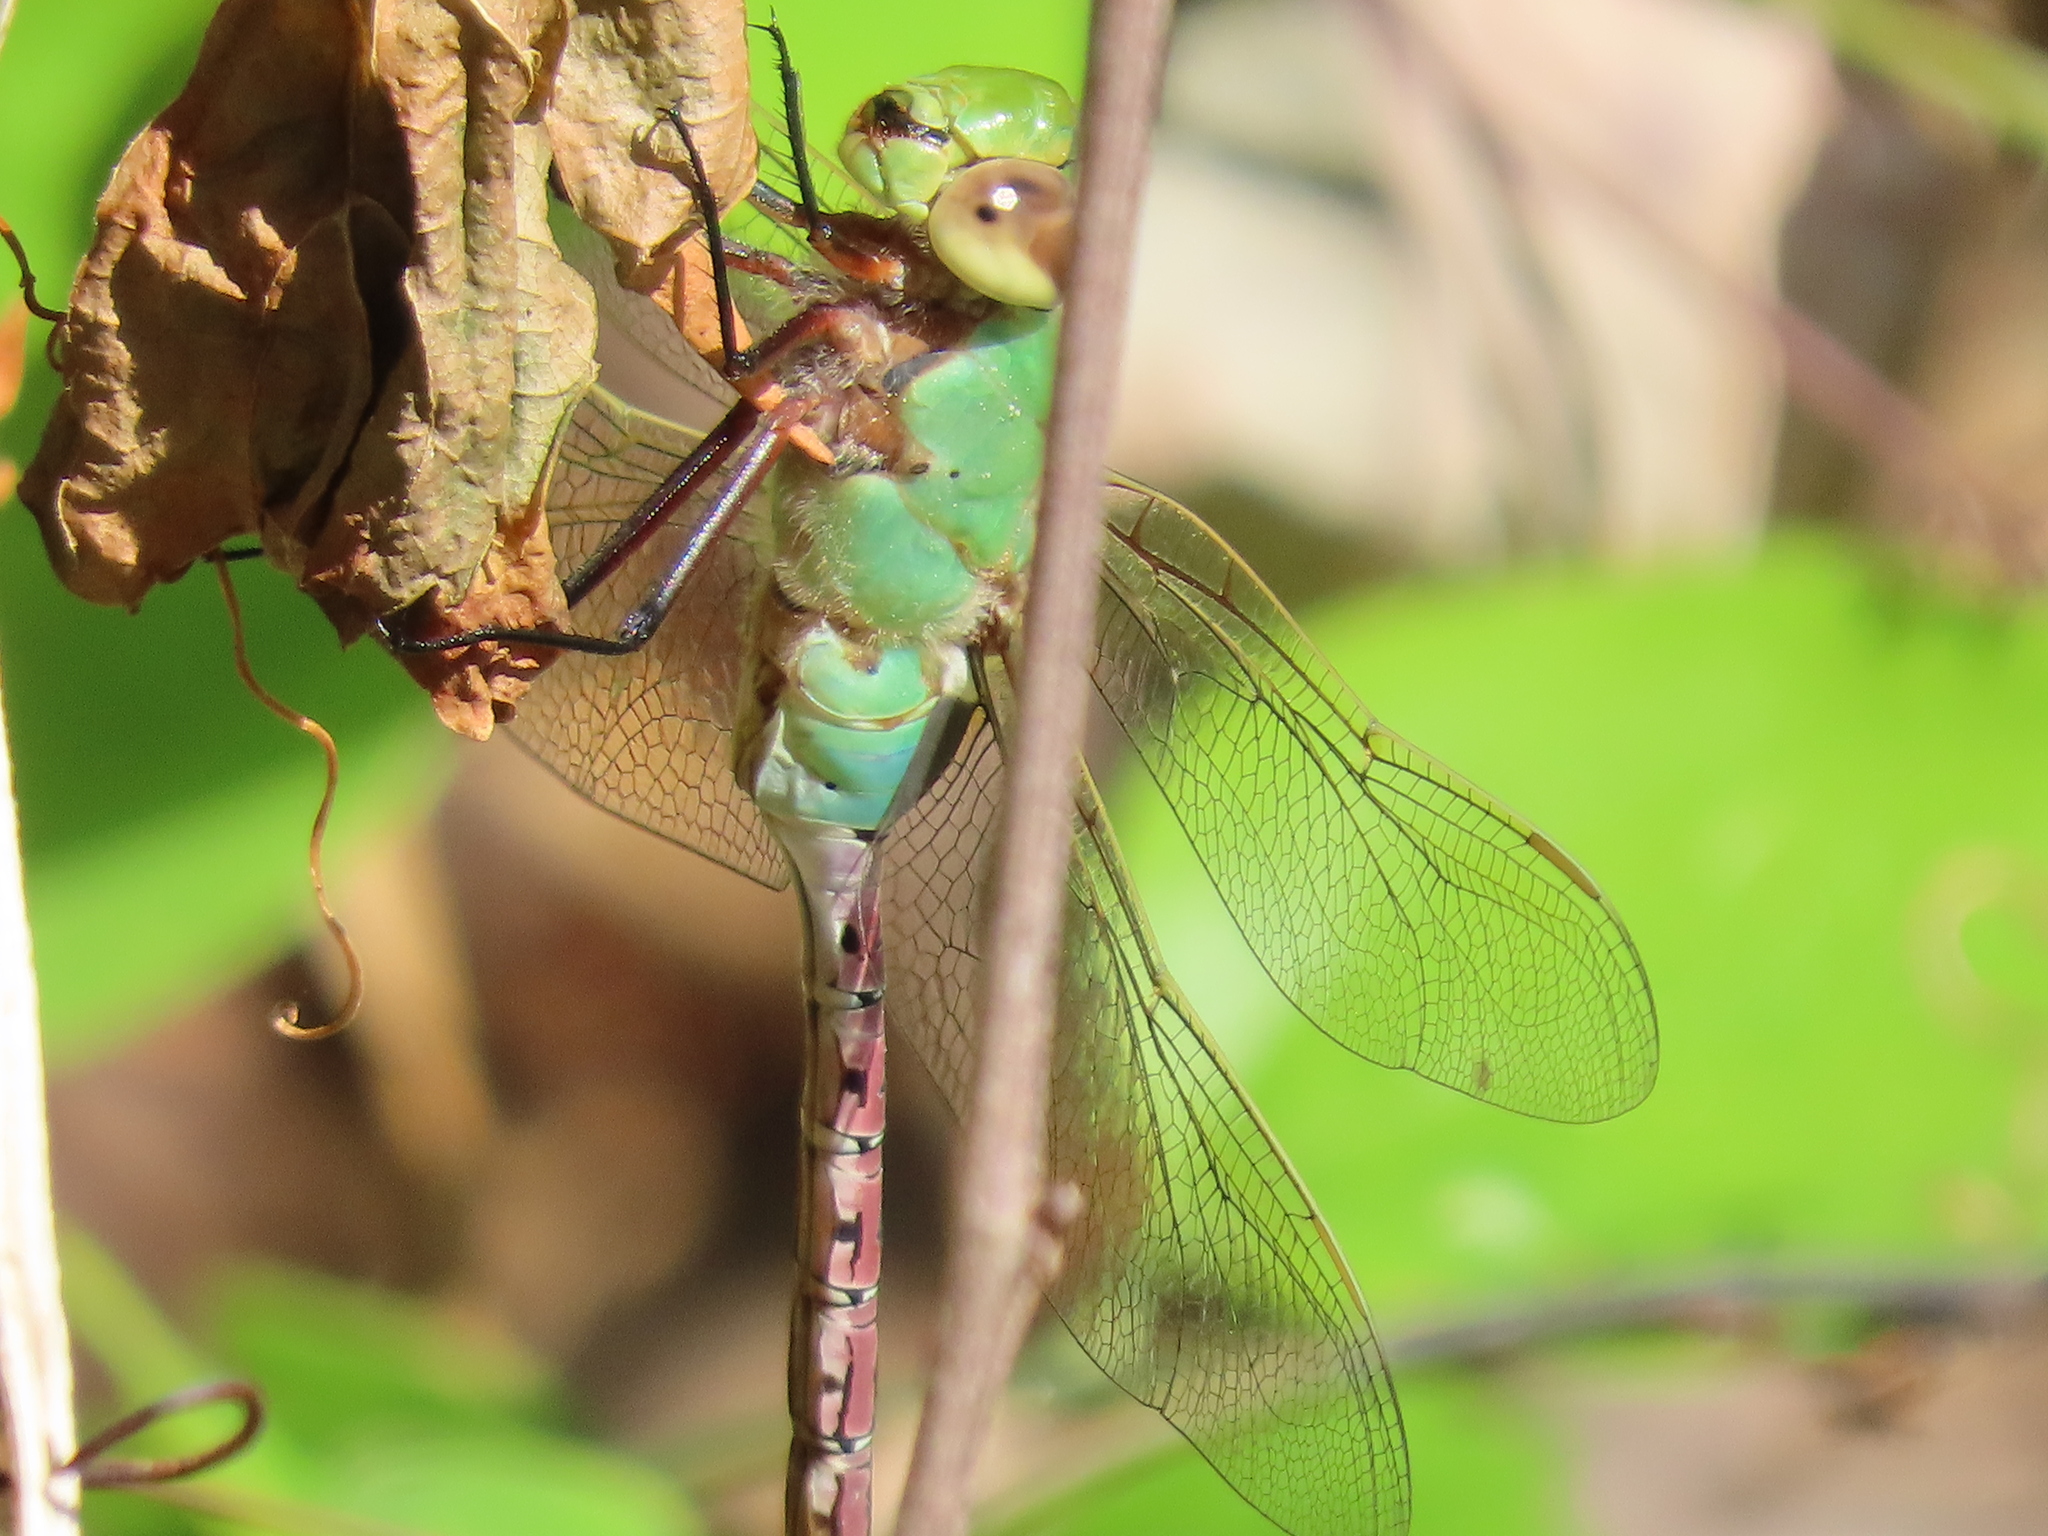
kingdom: Animalia
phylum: Arthropoda
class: Insecta
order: Odonata
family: Aeshnidae
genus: Anax
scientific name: Anax junius
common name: Common green darner
